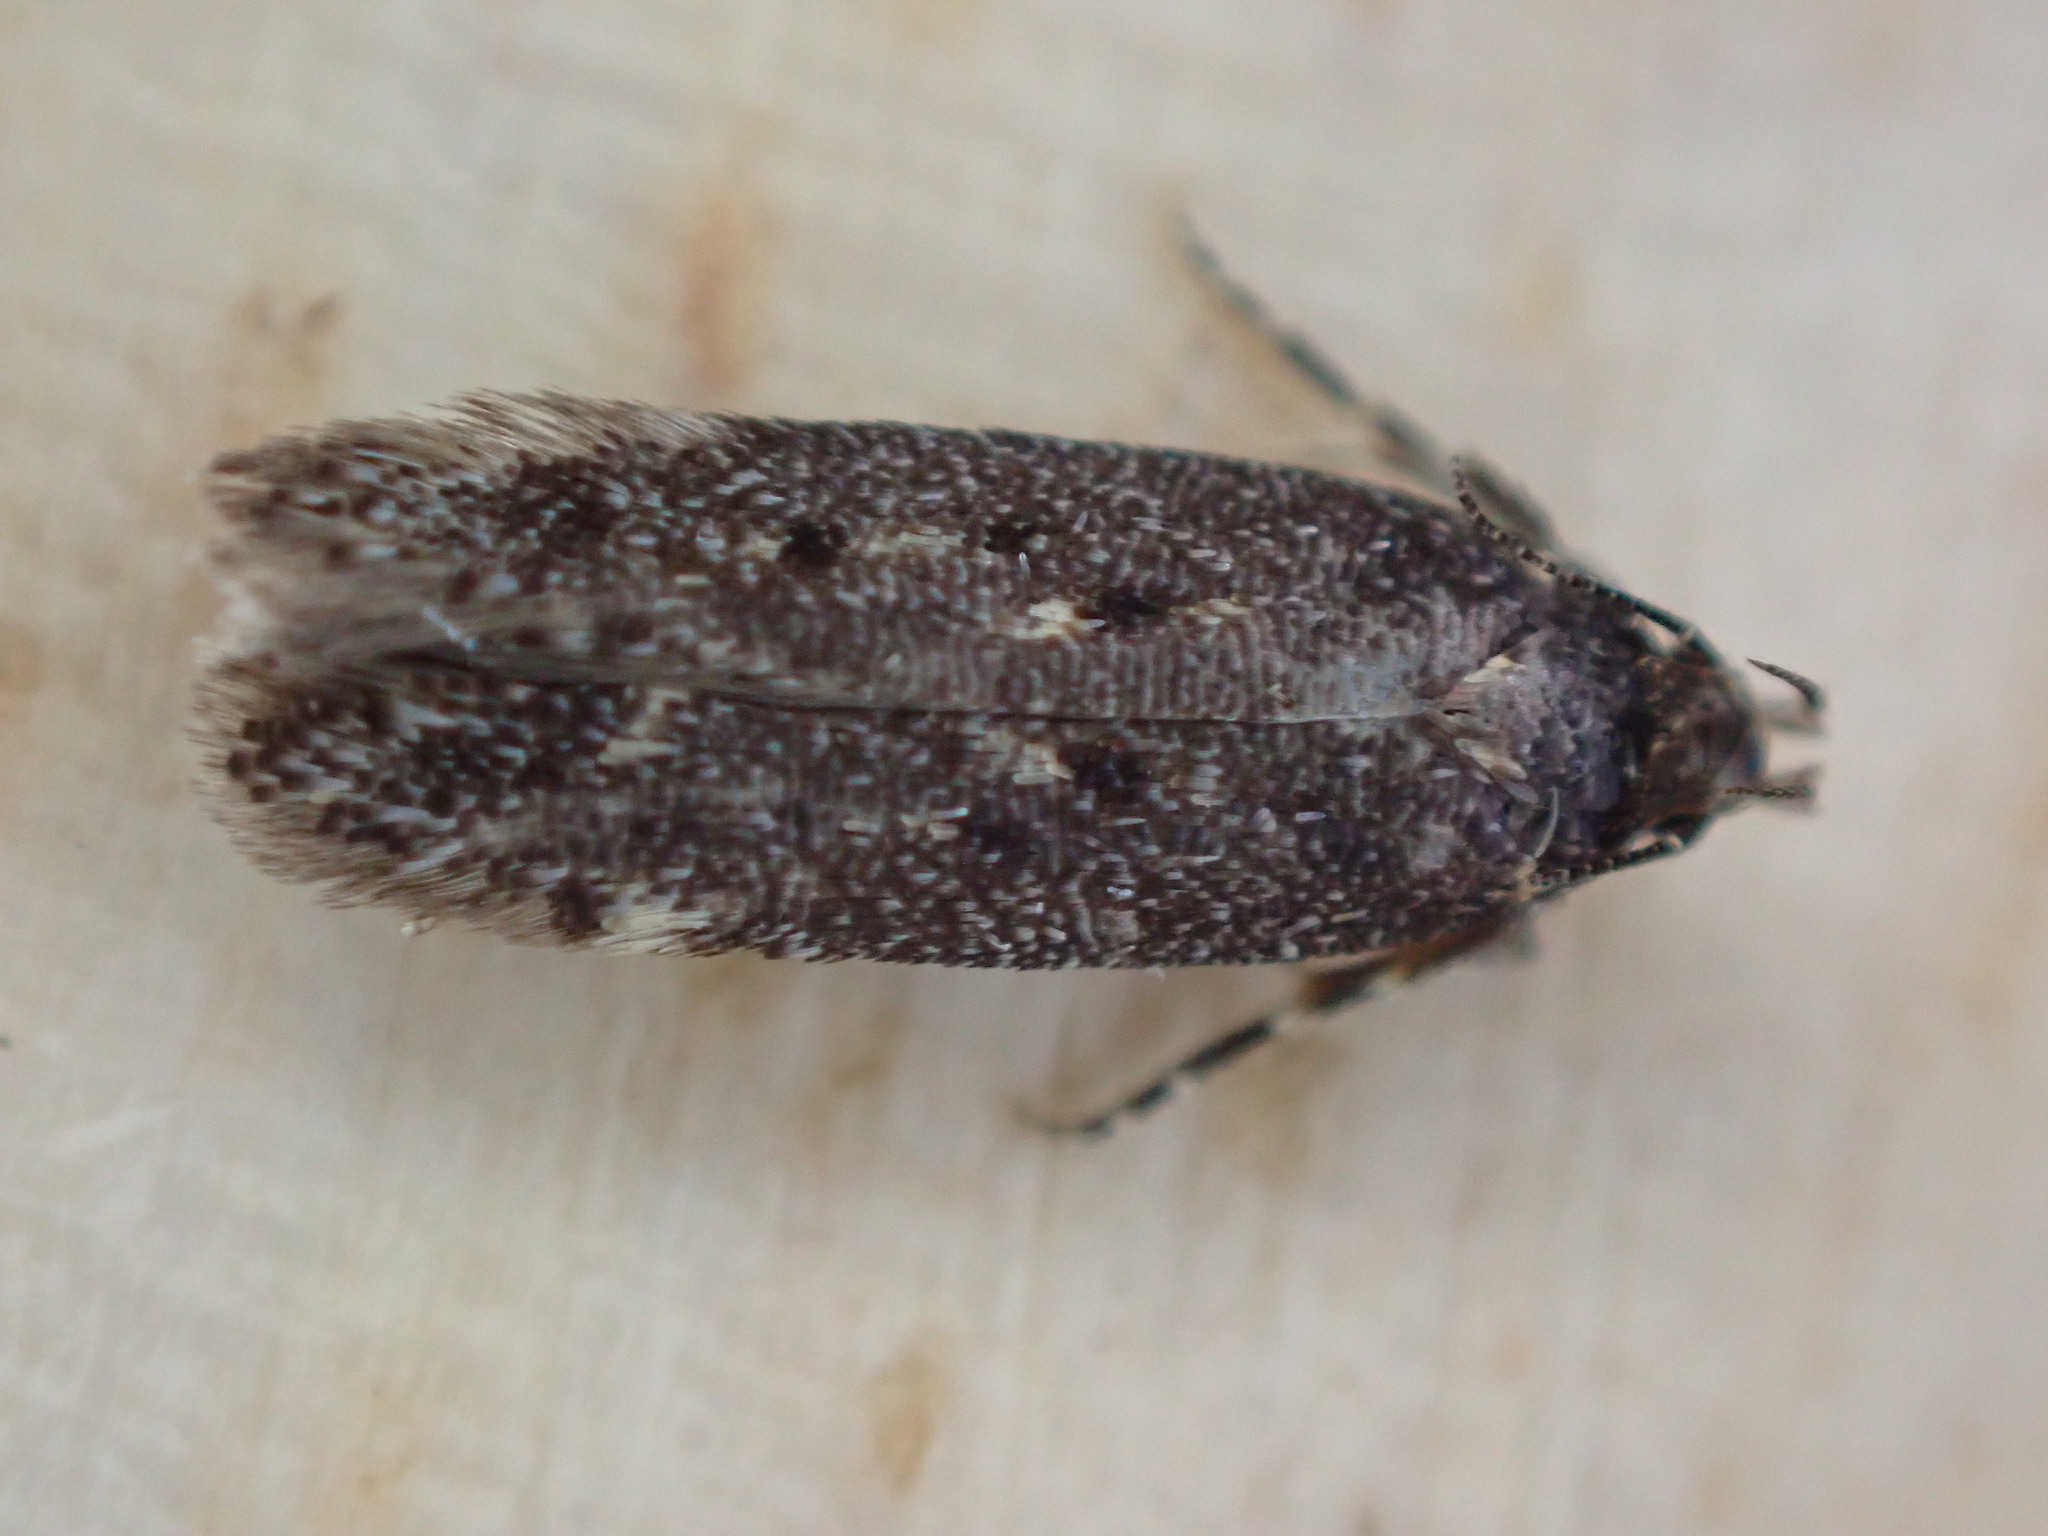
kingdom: Animalia
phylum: Arthropoda
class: Insecta
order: Lepidoptera
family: Gelechiidae
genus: Bryotropha
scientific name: Bryotropha affinis
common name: Dark groundling
